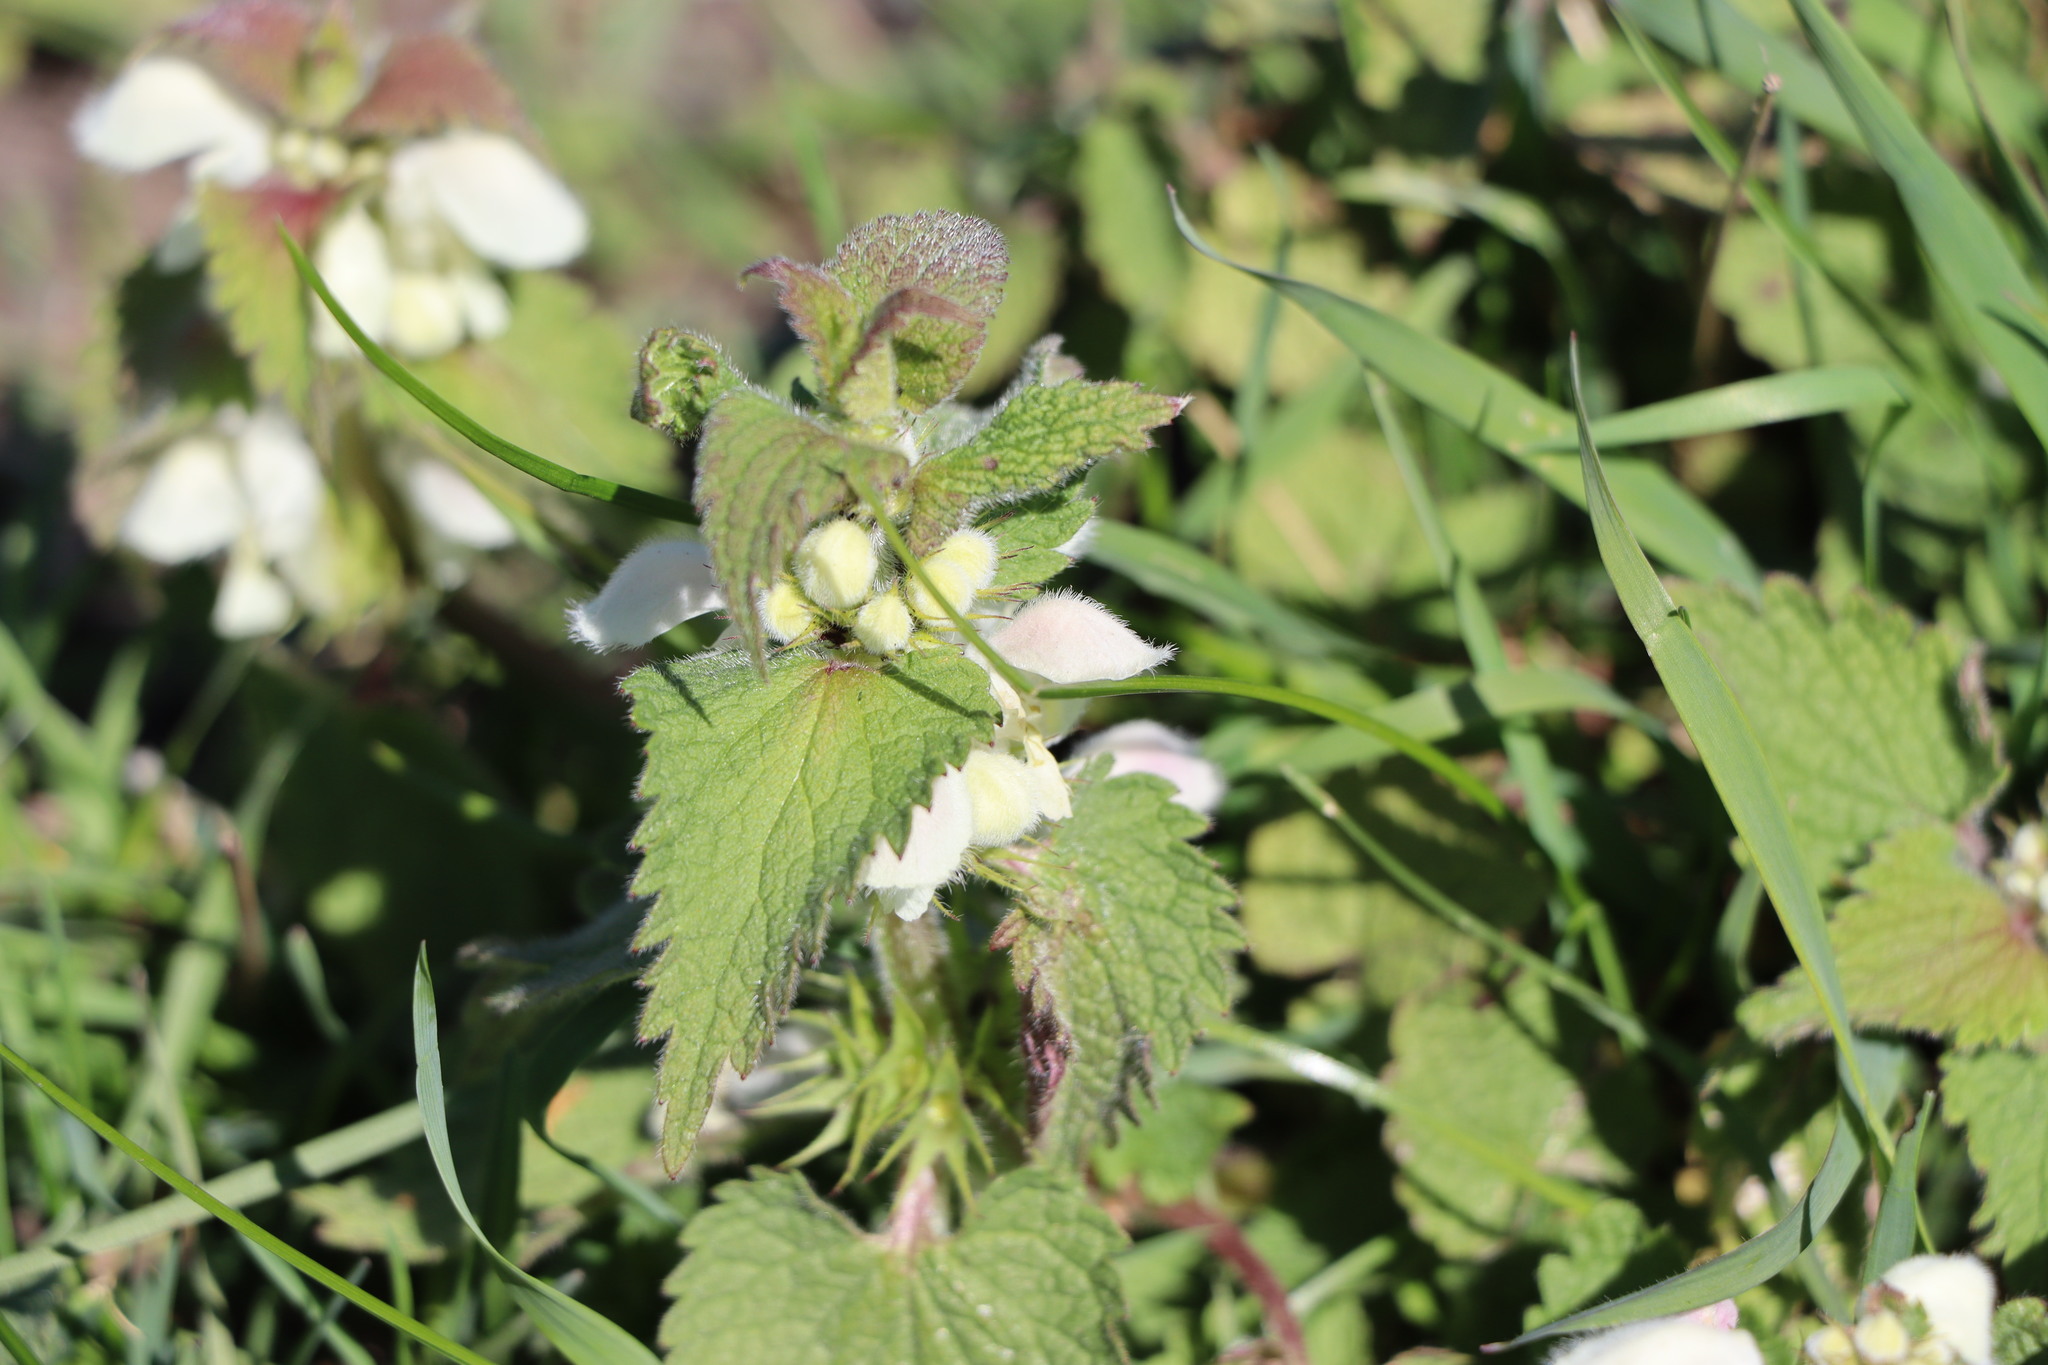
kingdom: Plantae
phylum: Tracheophyta
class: Magnoliopsida
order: Lamiales
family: Lamiaceae
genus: Lamium
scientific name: Lamium album
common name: White dead-nettle
